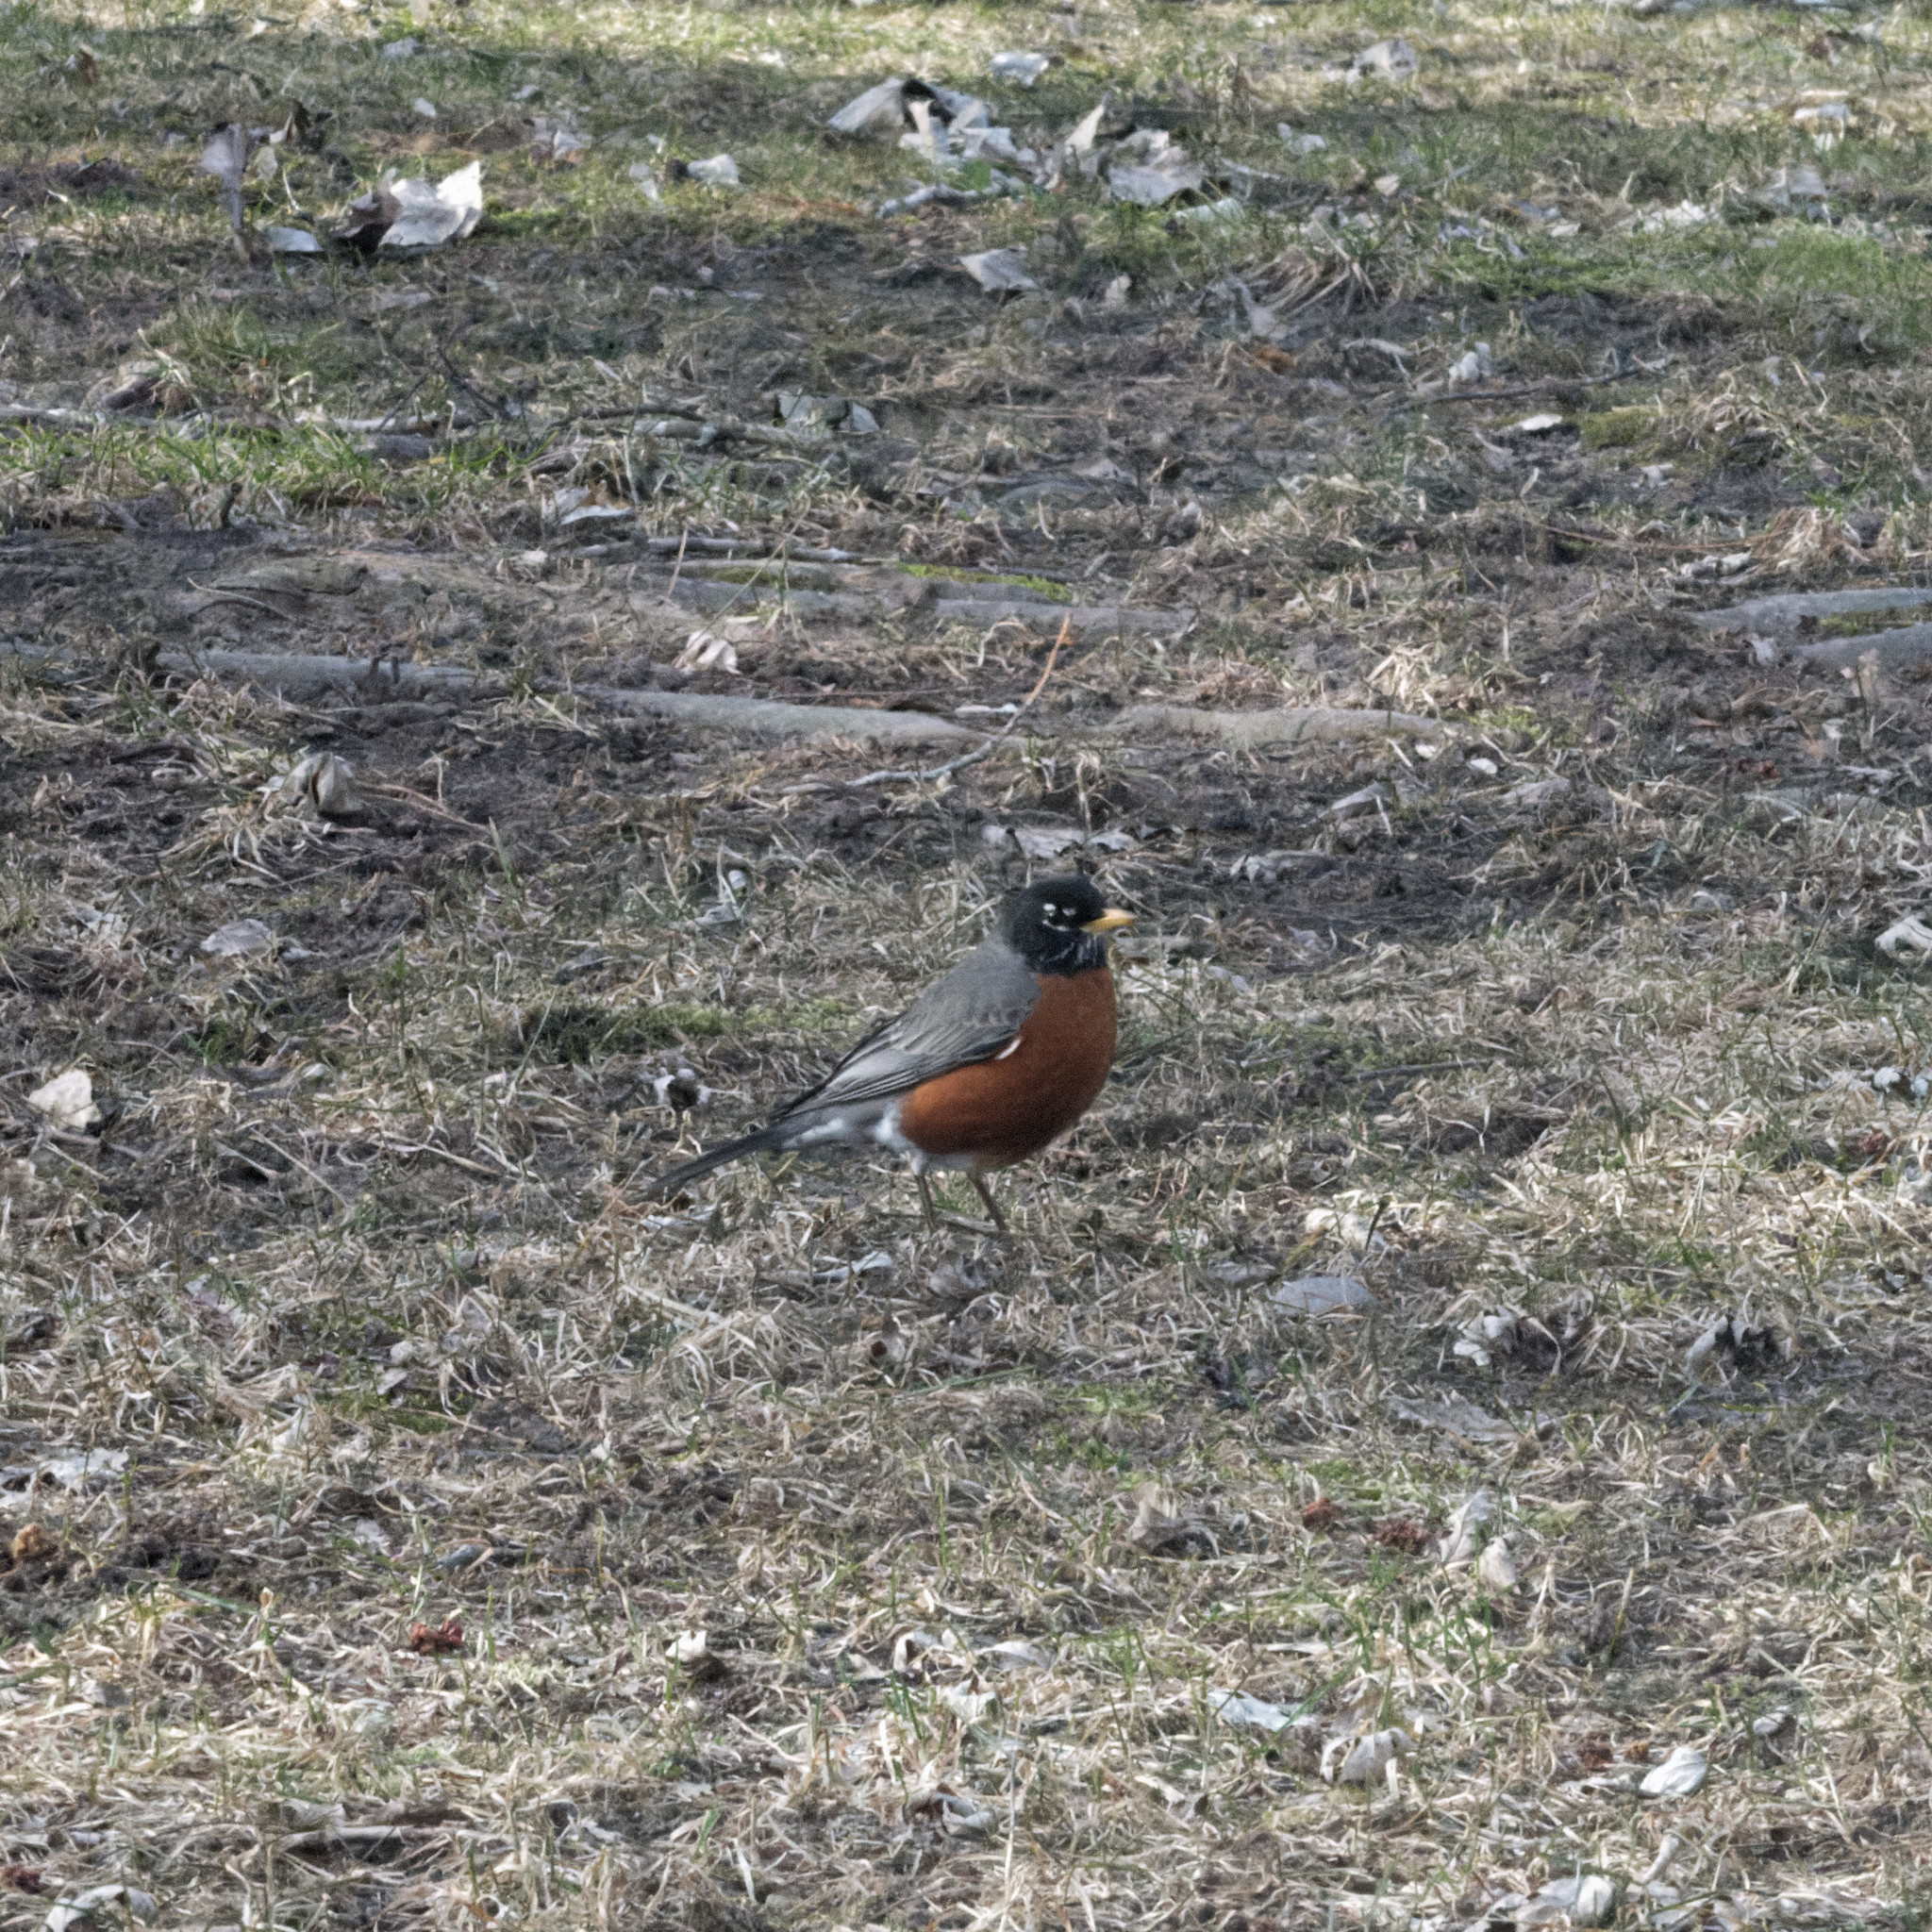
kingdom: Animalia
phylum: Chordata
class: Aves
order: Passeriformes
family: Turdidae
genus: Turdus
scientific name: Turdus migratorius
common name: American robin
